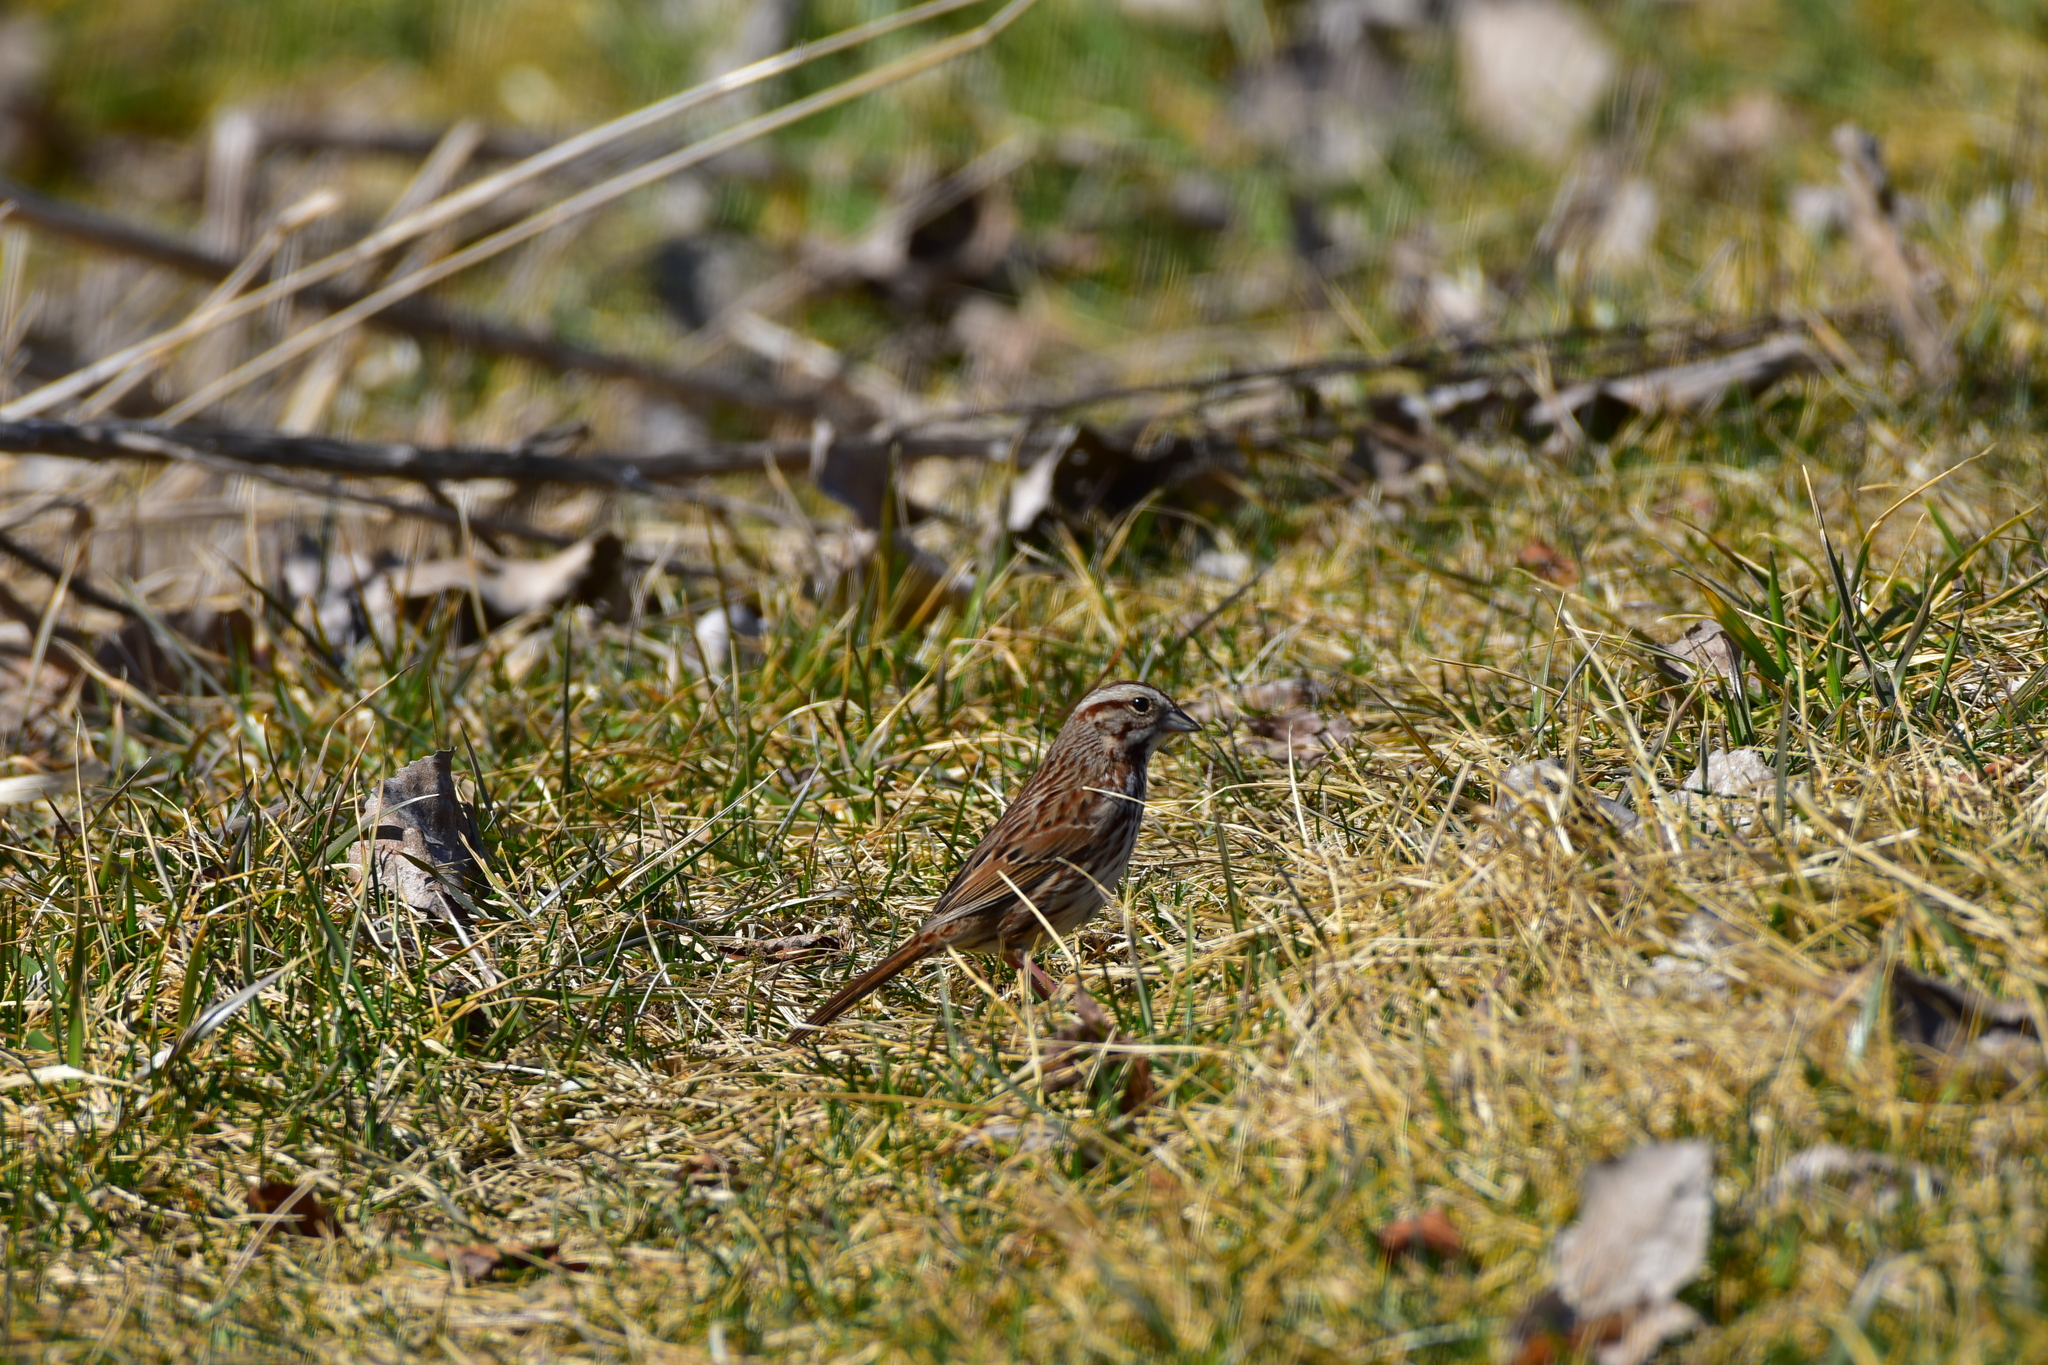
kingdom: Animalia
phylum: Chordata
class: Aves
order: Passeriformes
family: Passerellidae
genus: Melospiza
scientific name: Melospiza melodia
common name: Song sparrow
